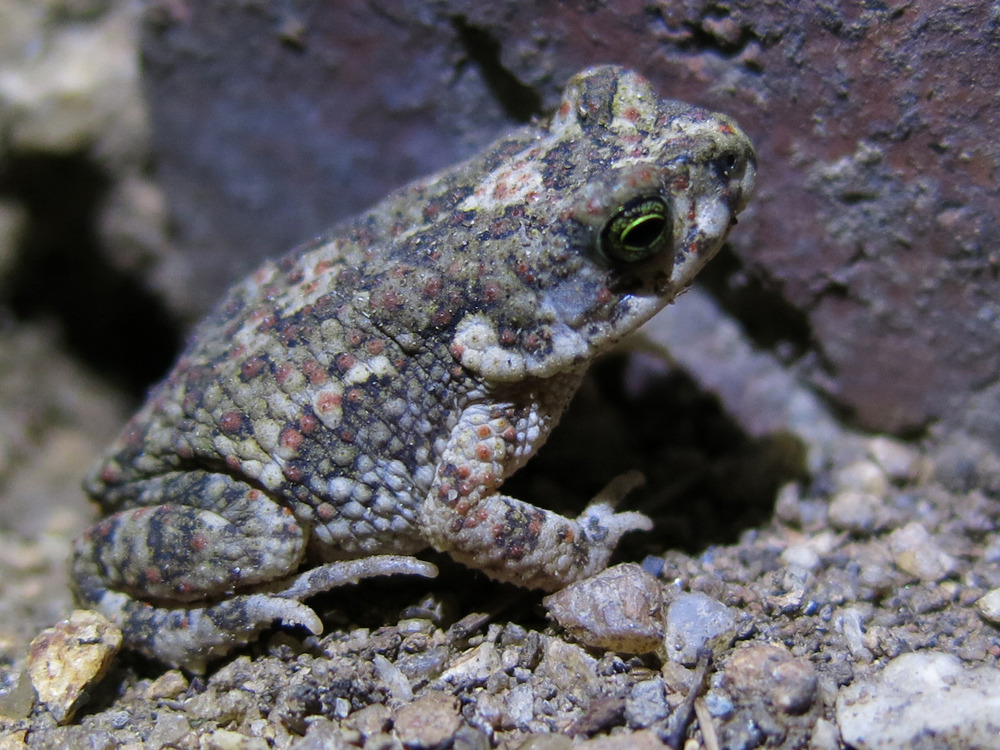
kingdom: Animalia
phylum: Chordata
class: Amphibia
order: Anura
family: Bufonidae
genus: Poyntonophrynus
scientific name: Poyntonophrynus fenoulheti
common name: Fenoulhet's toad
